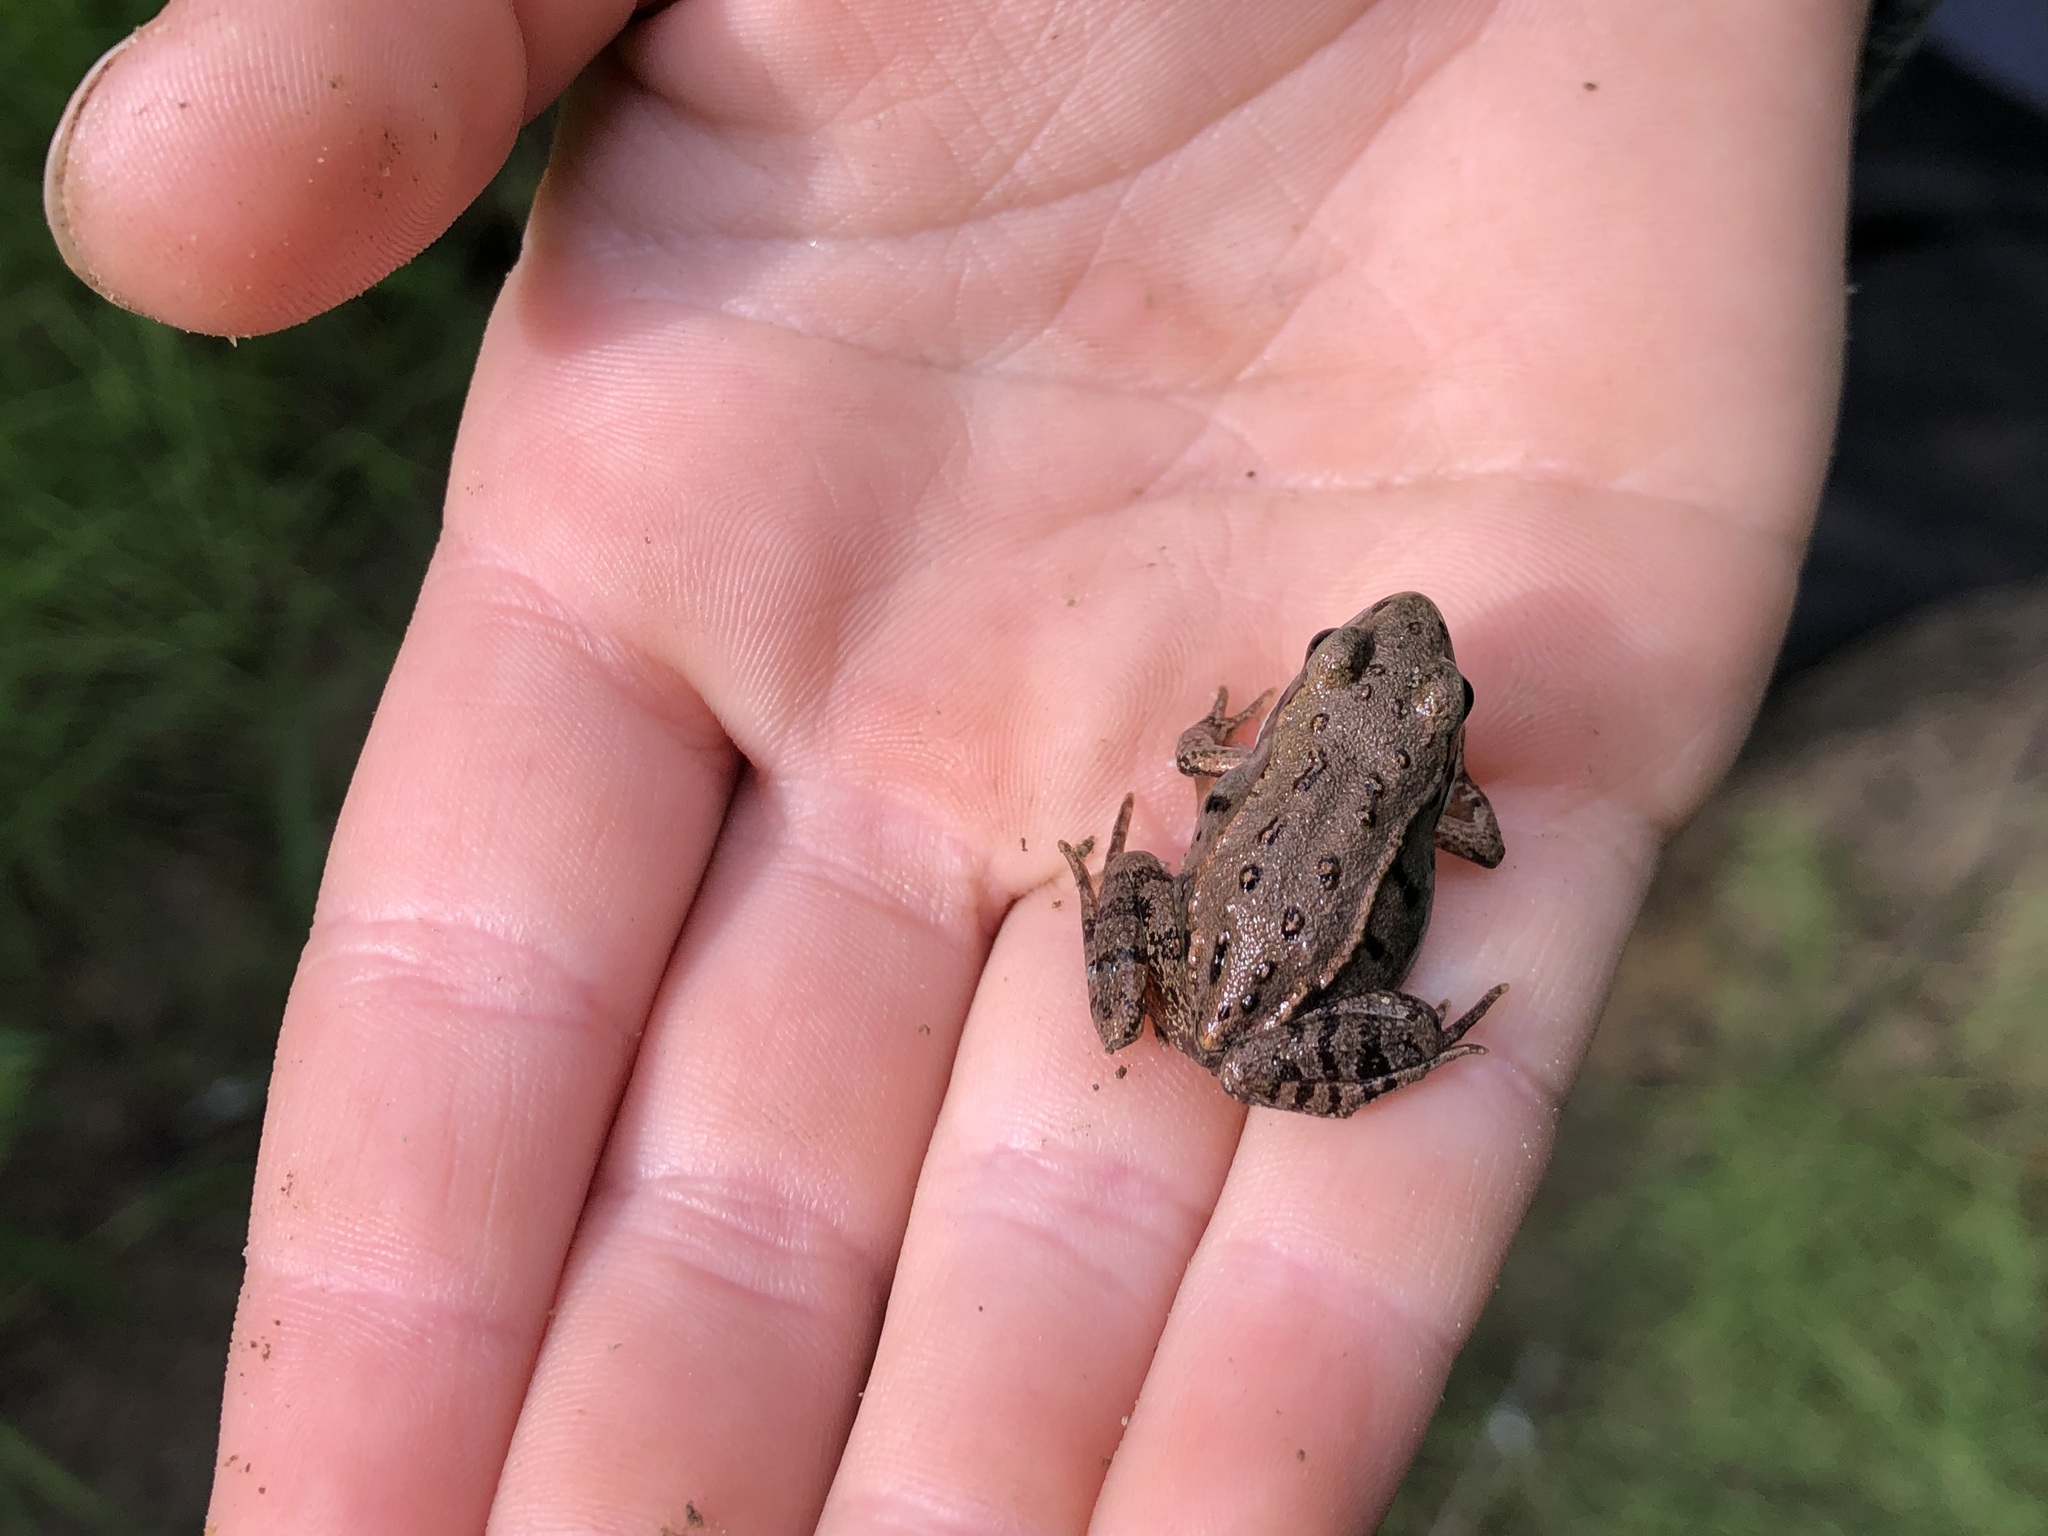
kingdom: Animalia
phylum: Chordata
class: Amphibia
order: Anura
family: Ranidae
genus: Lithobates
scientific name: Lithobates sylvaticus
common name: Wood frog
